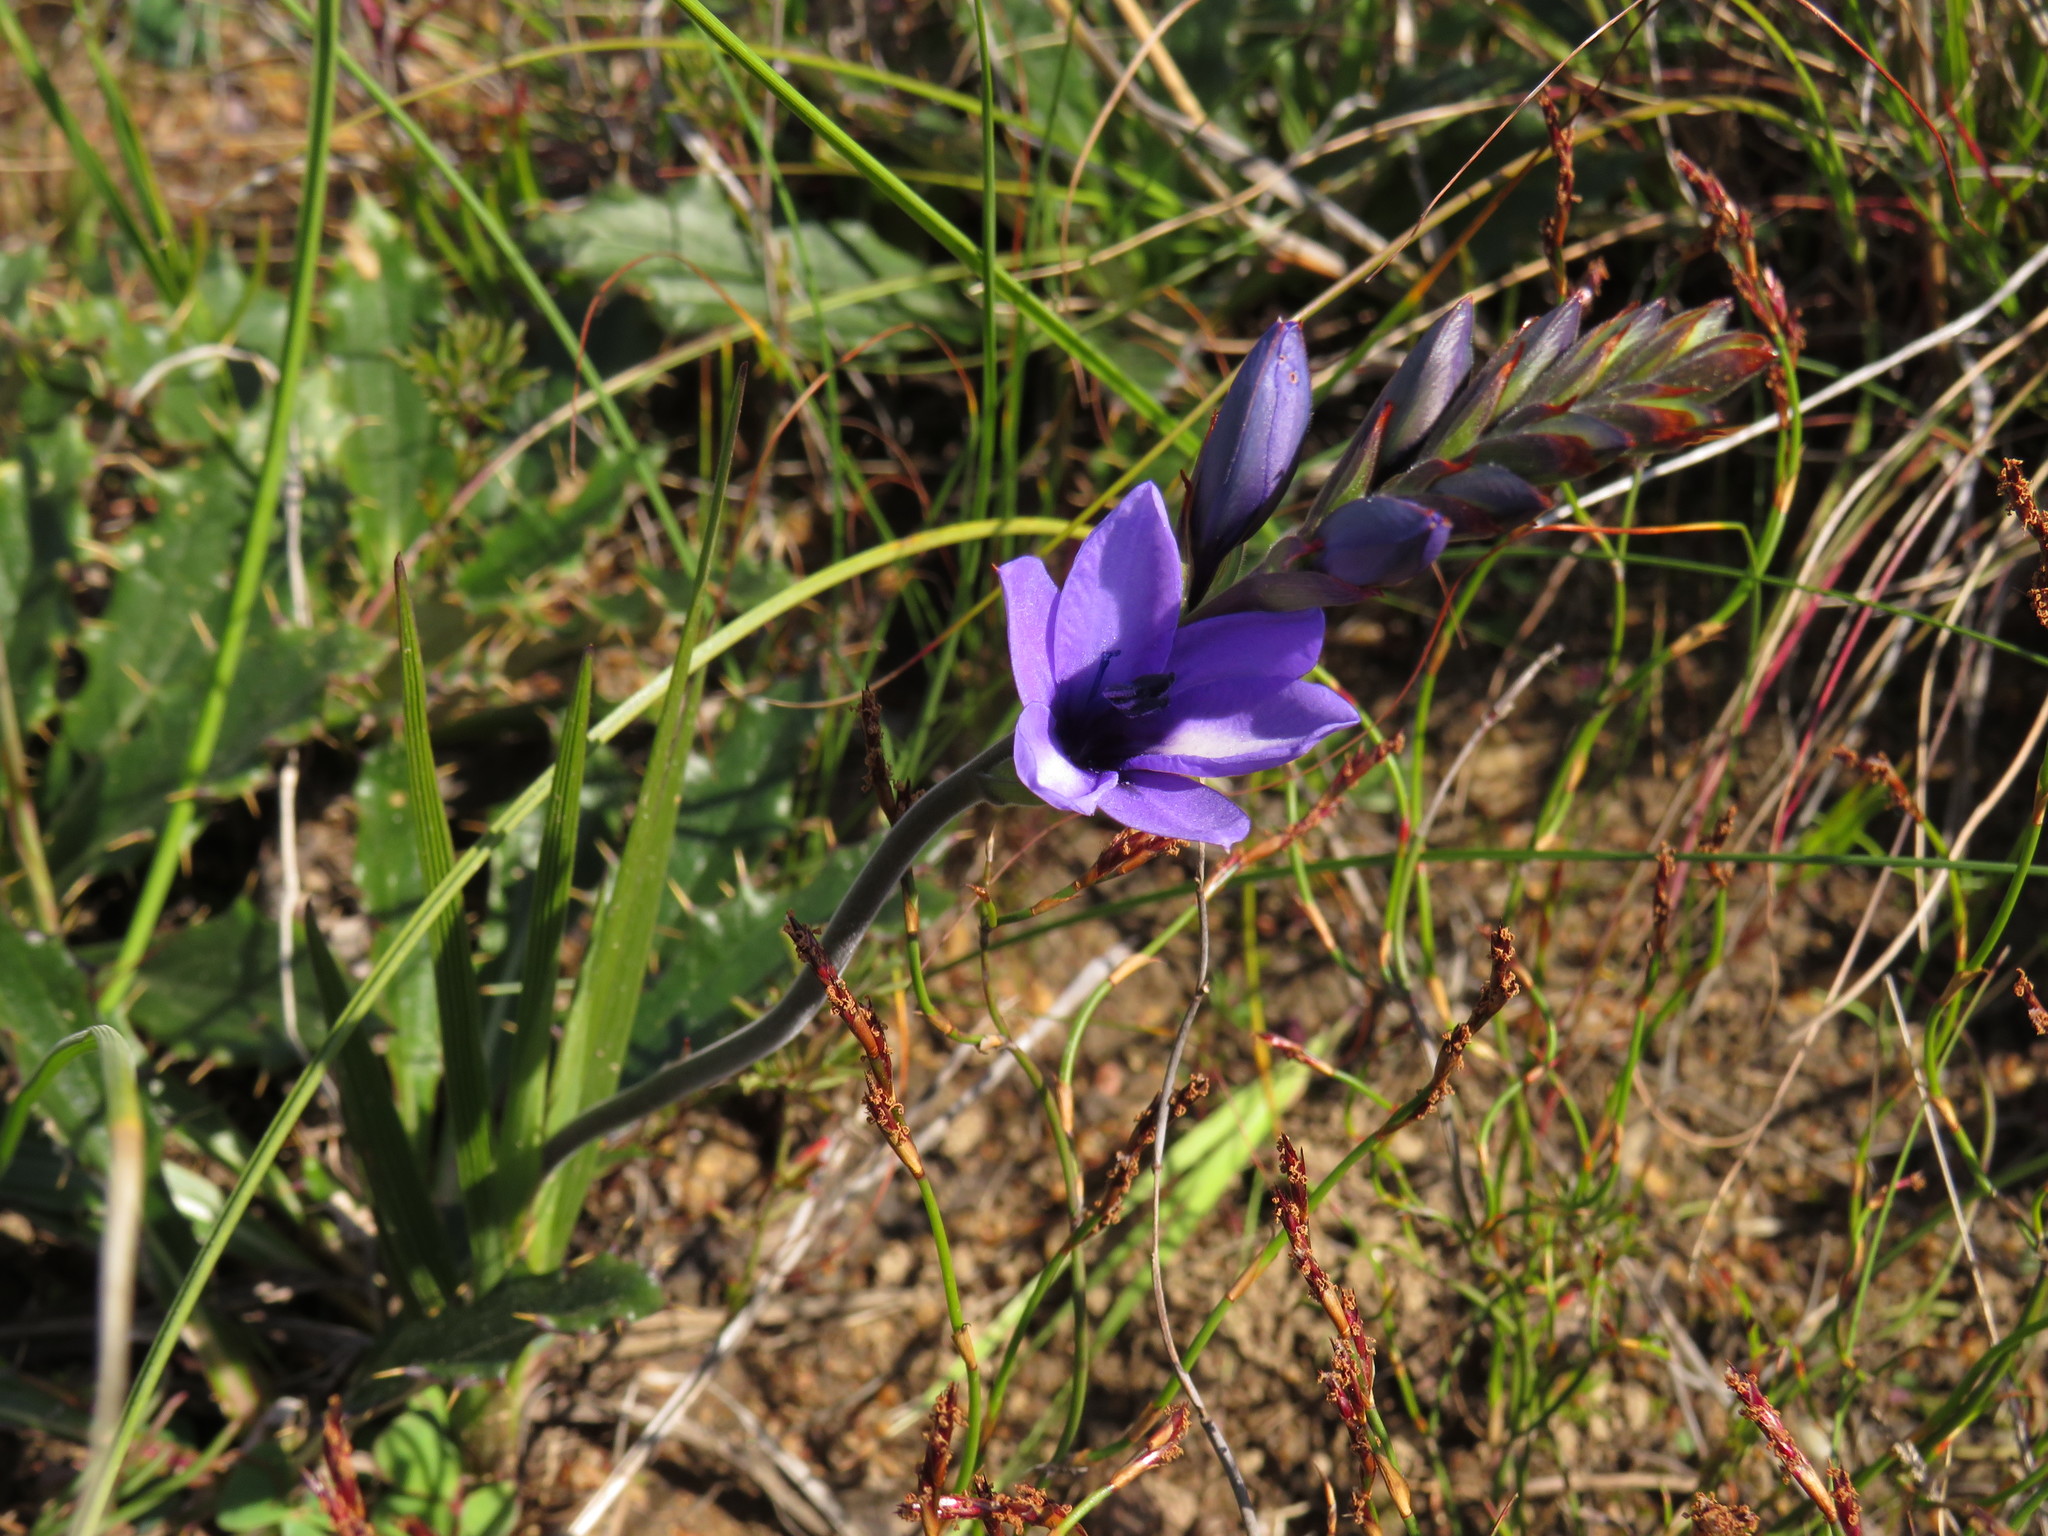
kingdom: Plantae
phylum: Tracheophyta
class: Liliopsida
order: Asparagales
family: Iridaceae
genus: Babiana
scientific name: Babiana angustifolia
